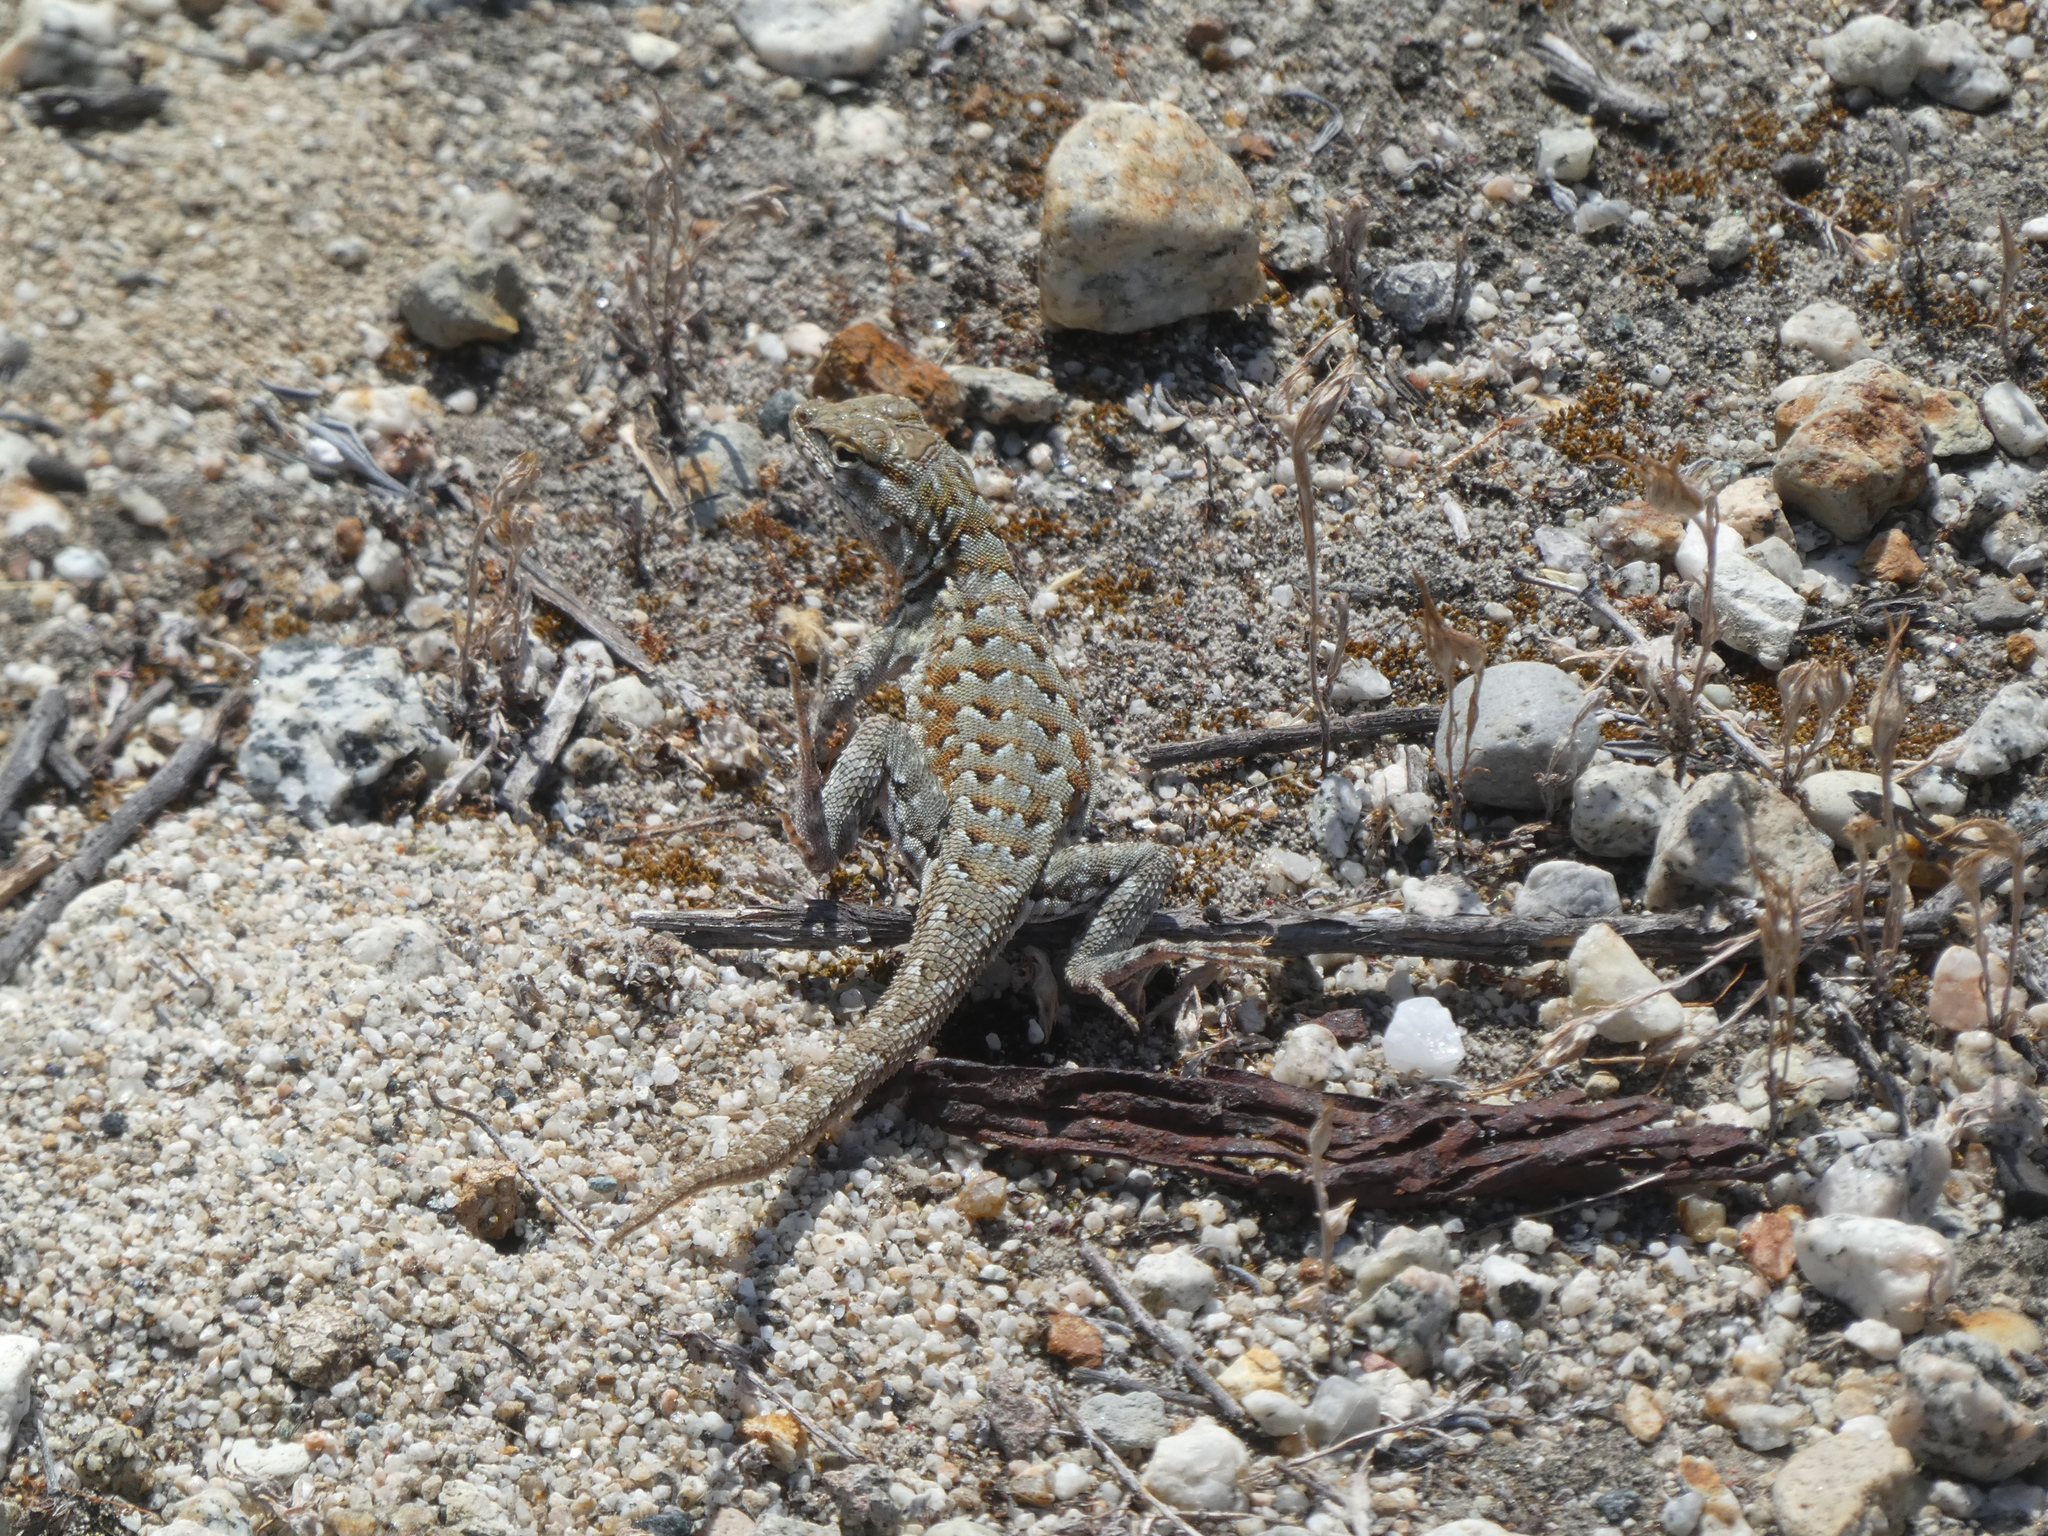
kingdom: Animalia
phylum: Chordata
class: Squamata
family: Phrynosomatidae
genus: Uta
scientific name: Uta stansburiana
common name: Side-blotched lizard
